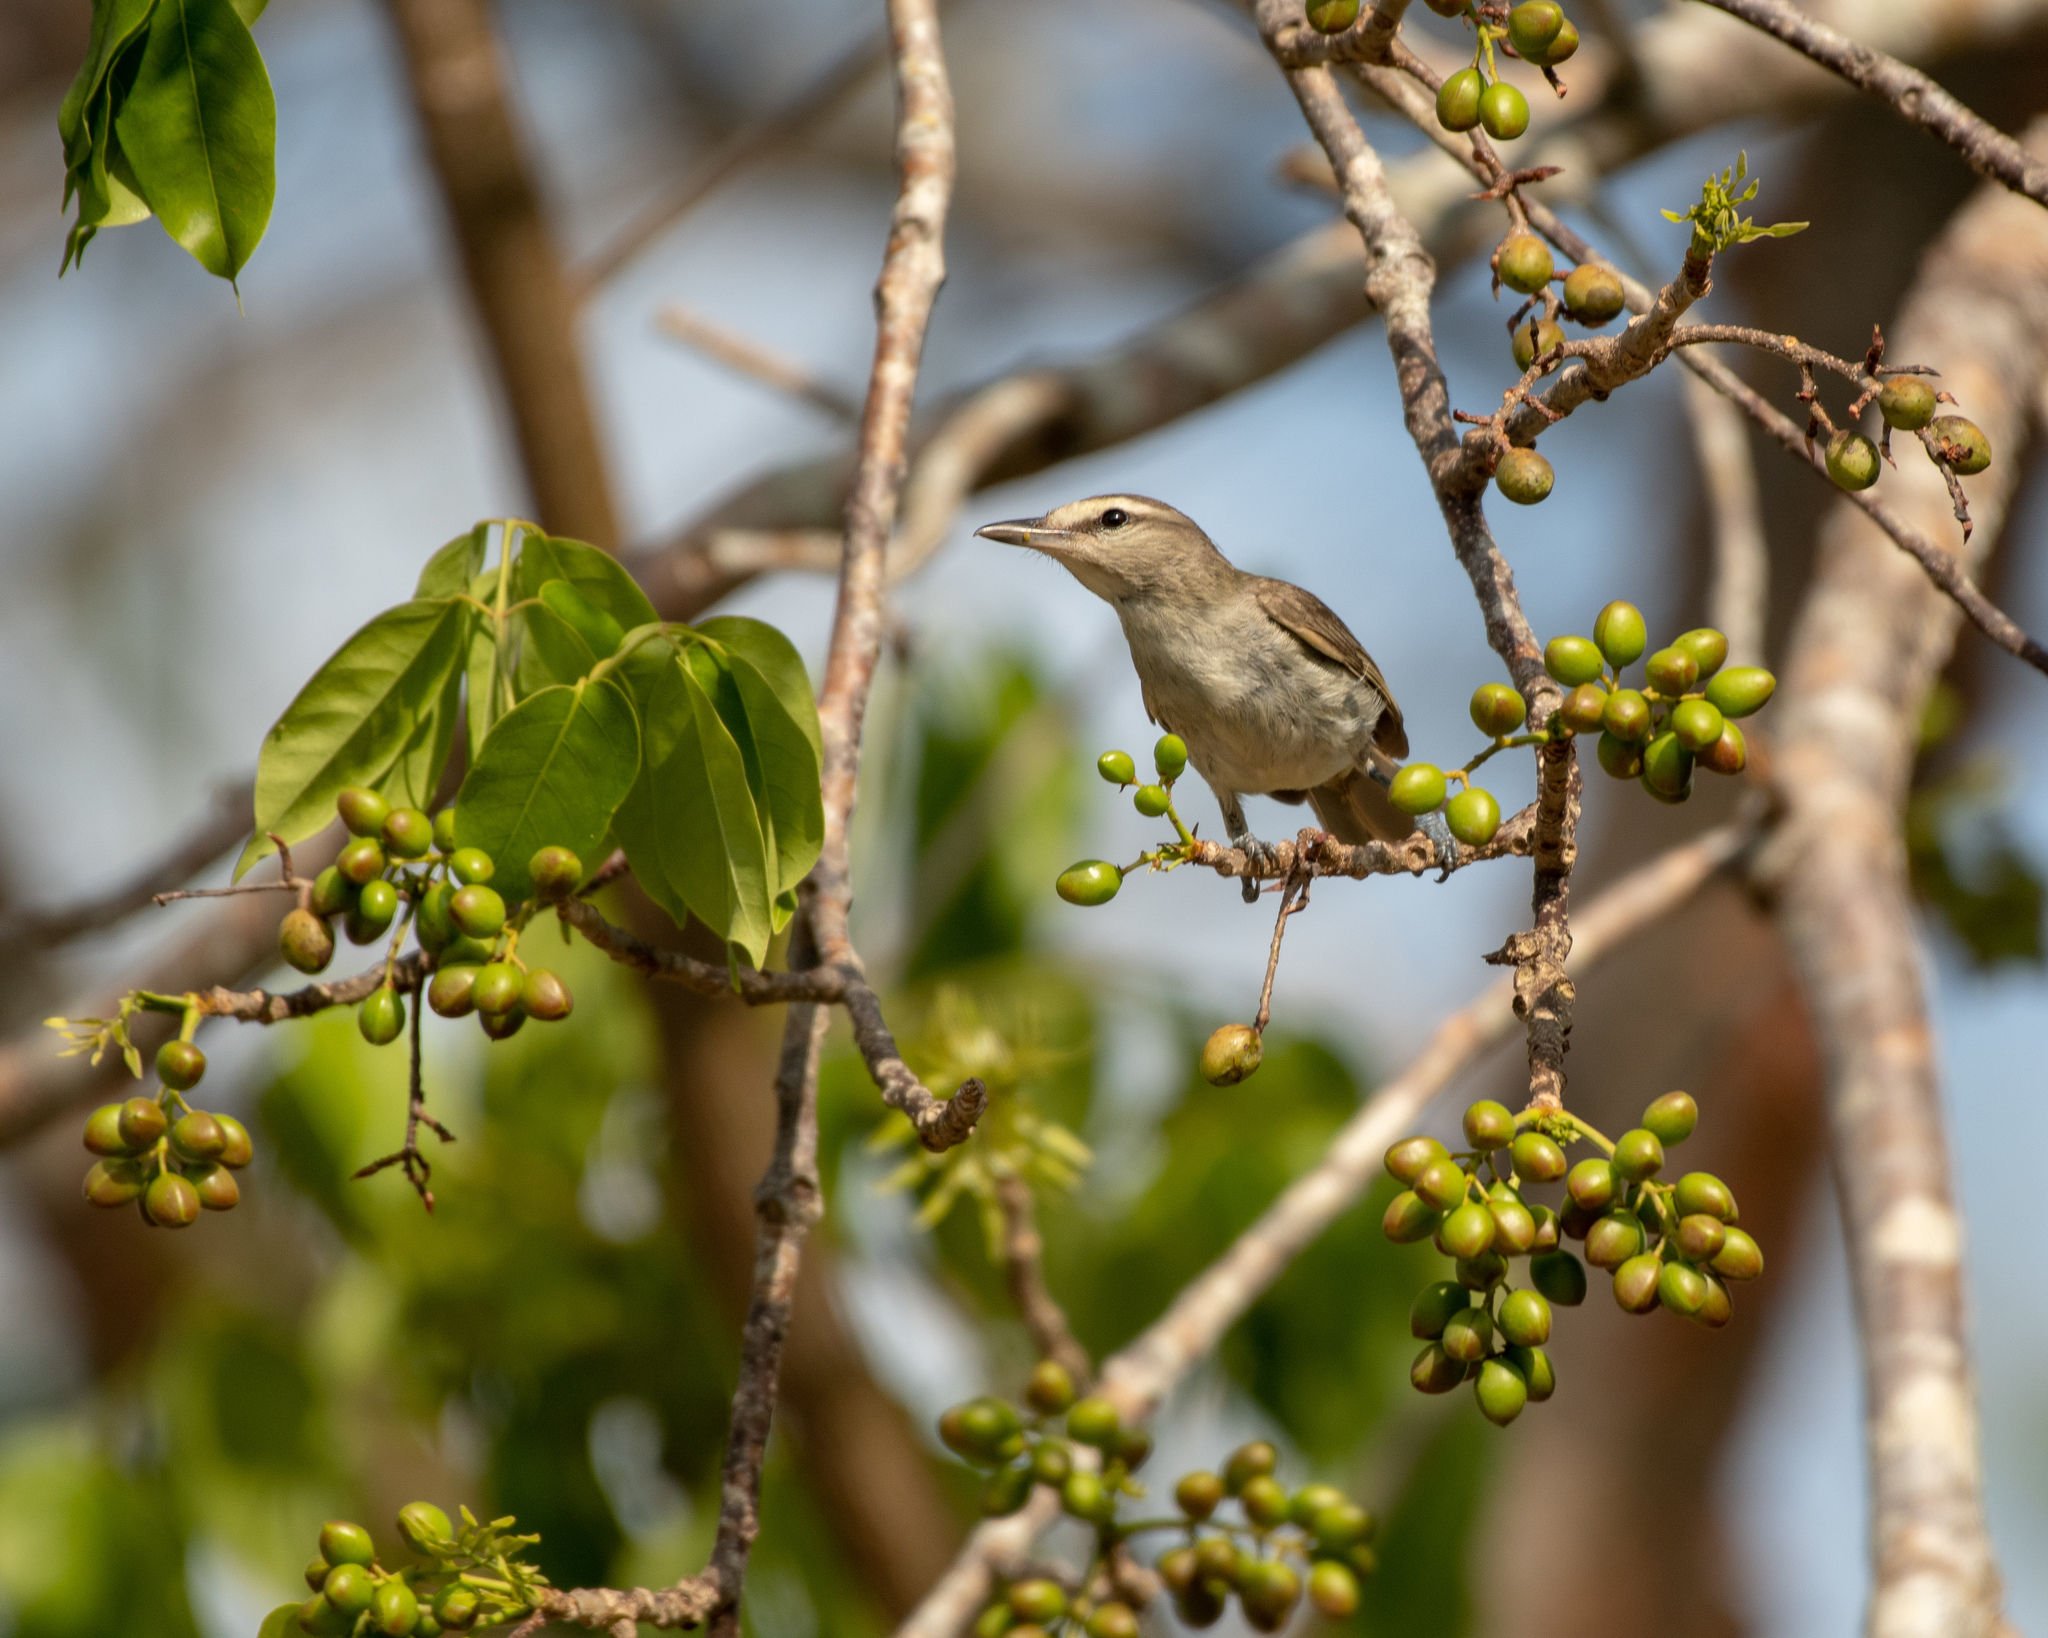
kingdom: Animalia
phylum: Chordata
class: Aves
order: Passeriformes
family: Vireonidae
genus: Vireo
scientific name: Vireo magister
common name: Yucatan vireo
